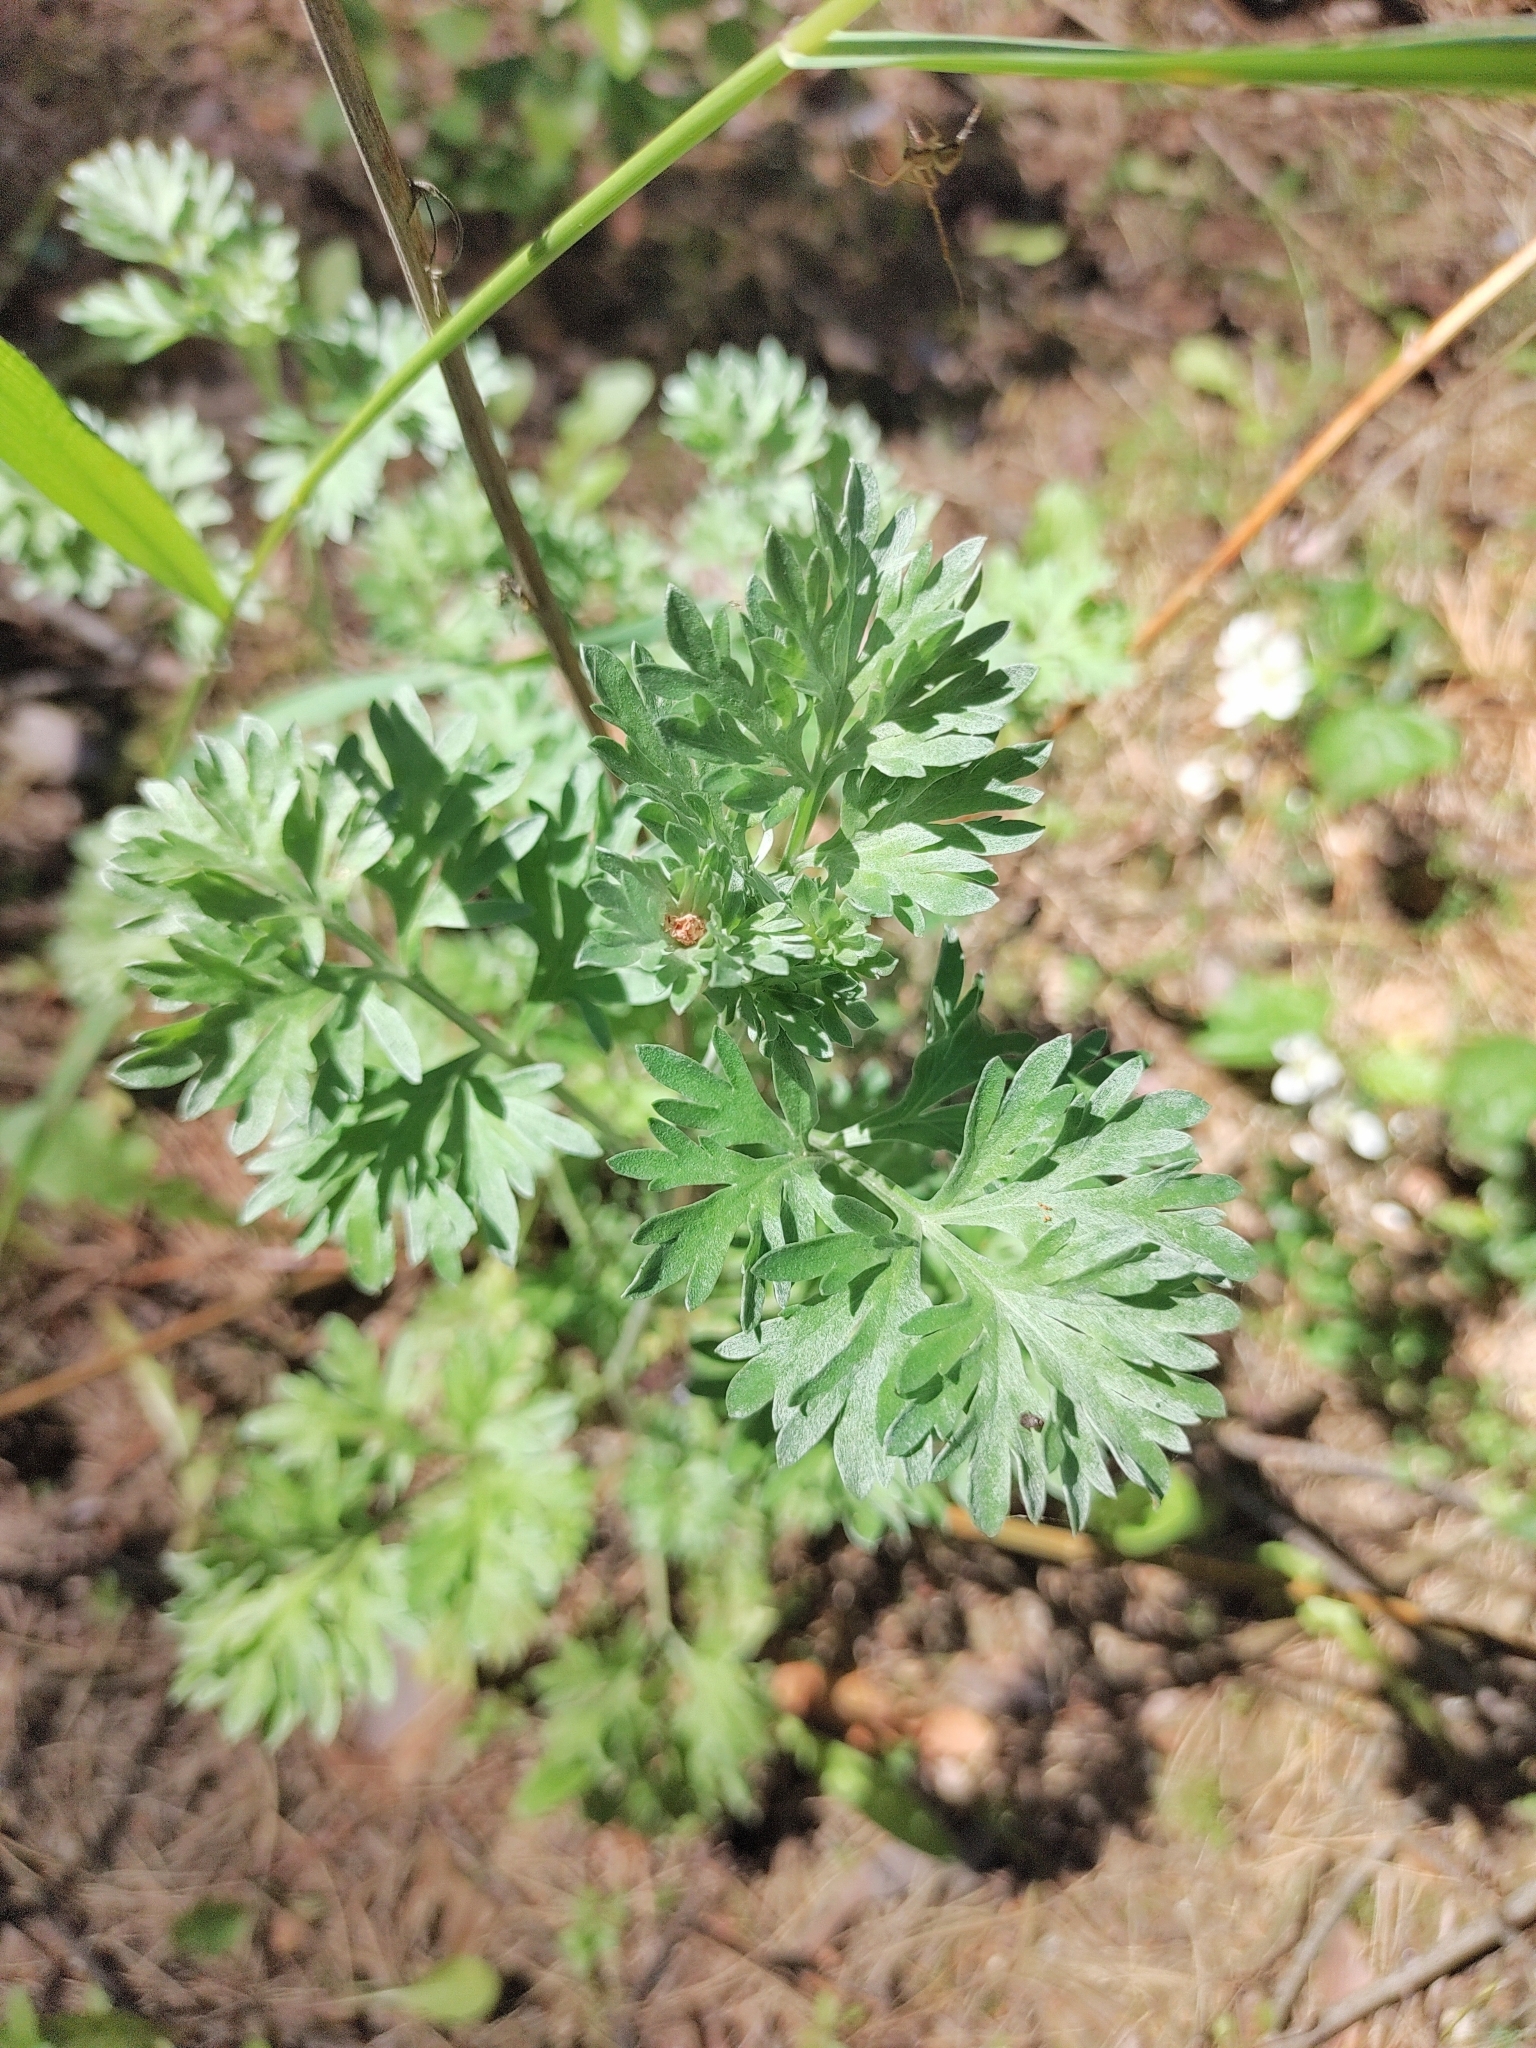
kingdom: Plantae
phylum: Tracheophyta
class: Magnoliopsida
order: Asterales
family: Asteraceae
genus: Artemisia
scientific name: Artemisia absinthium
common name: Wormwood
